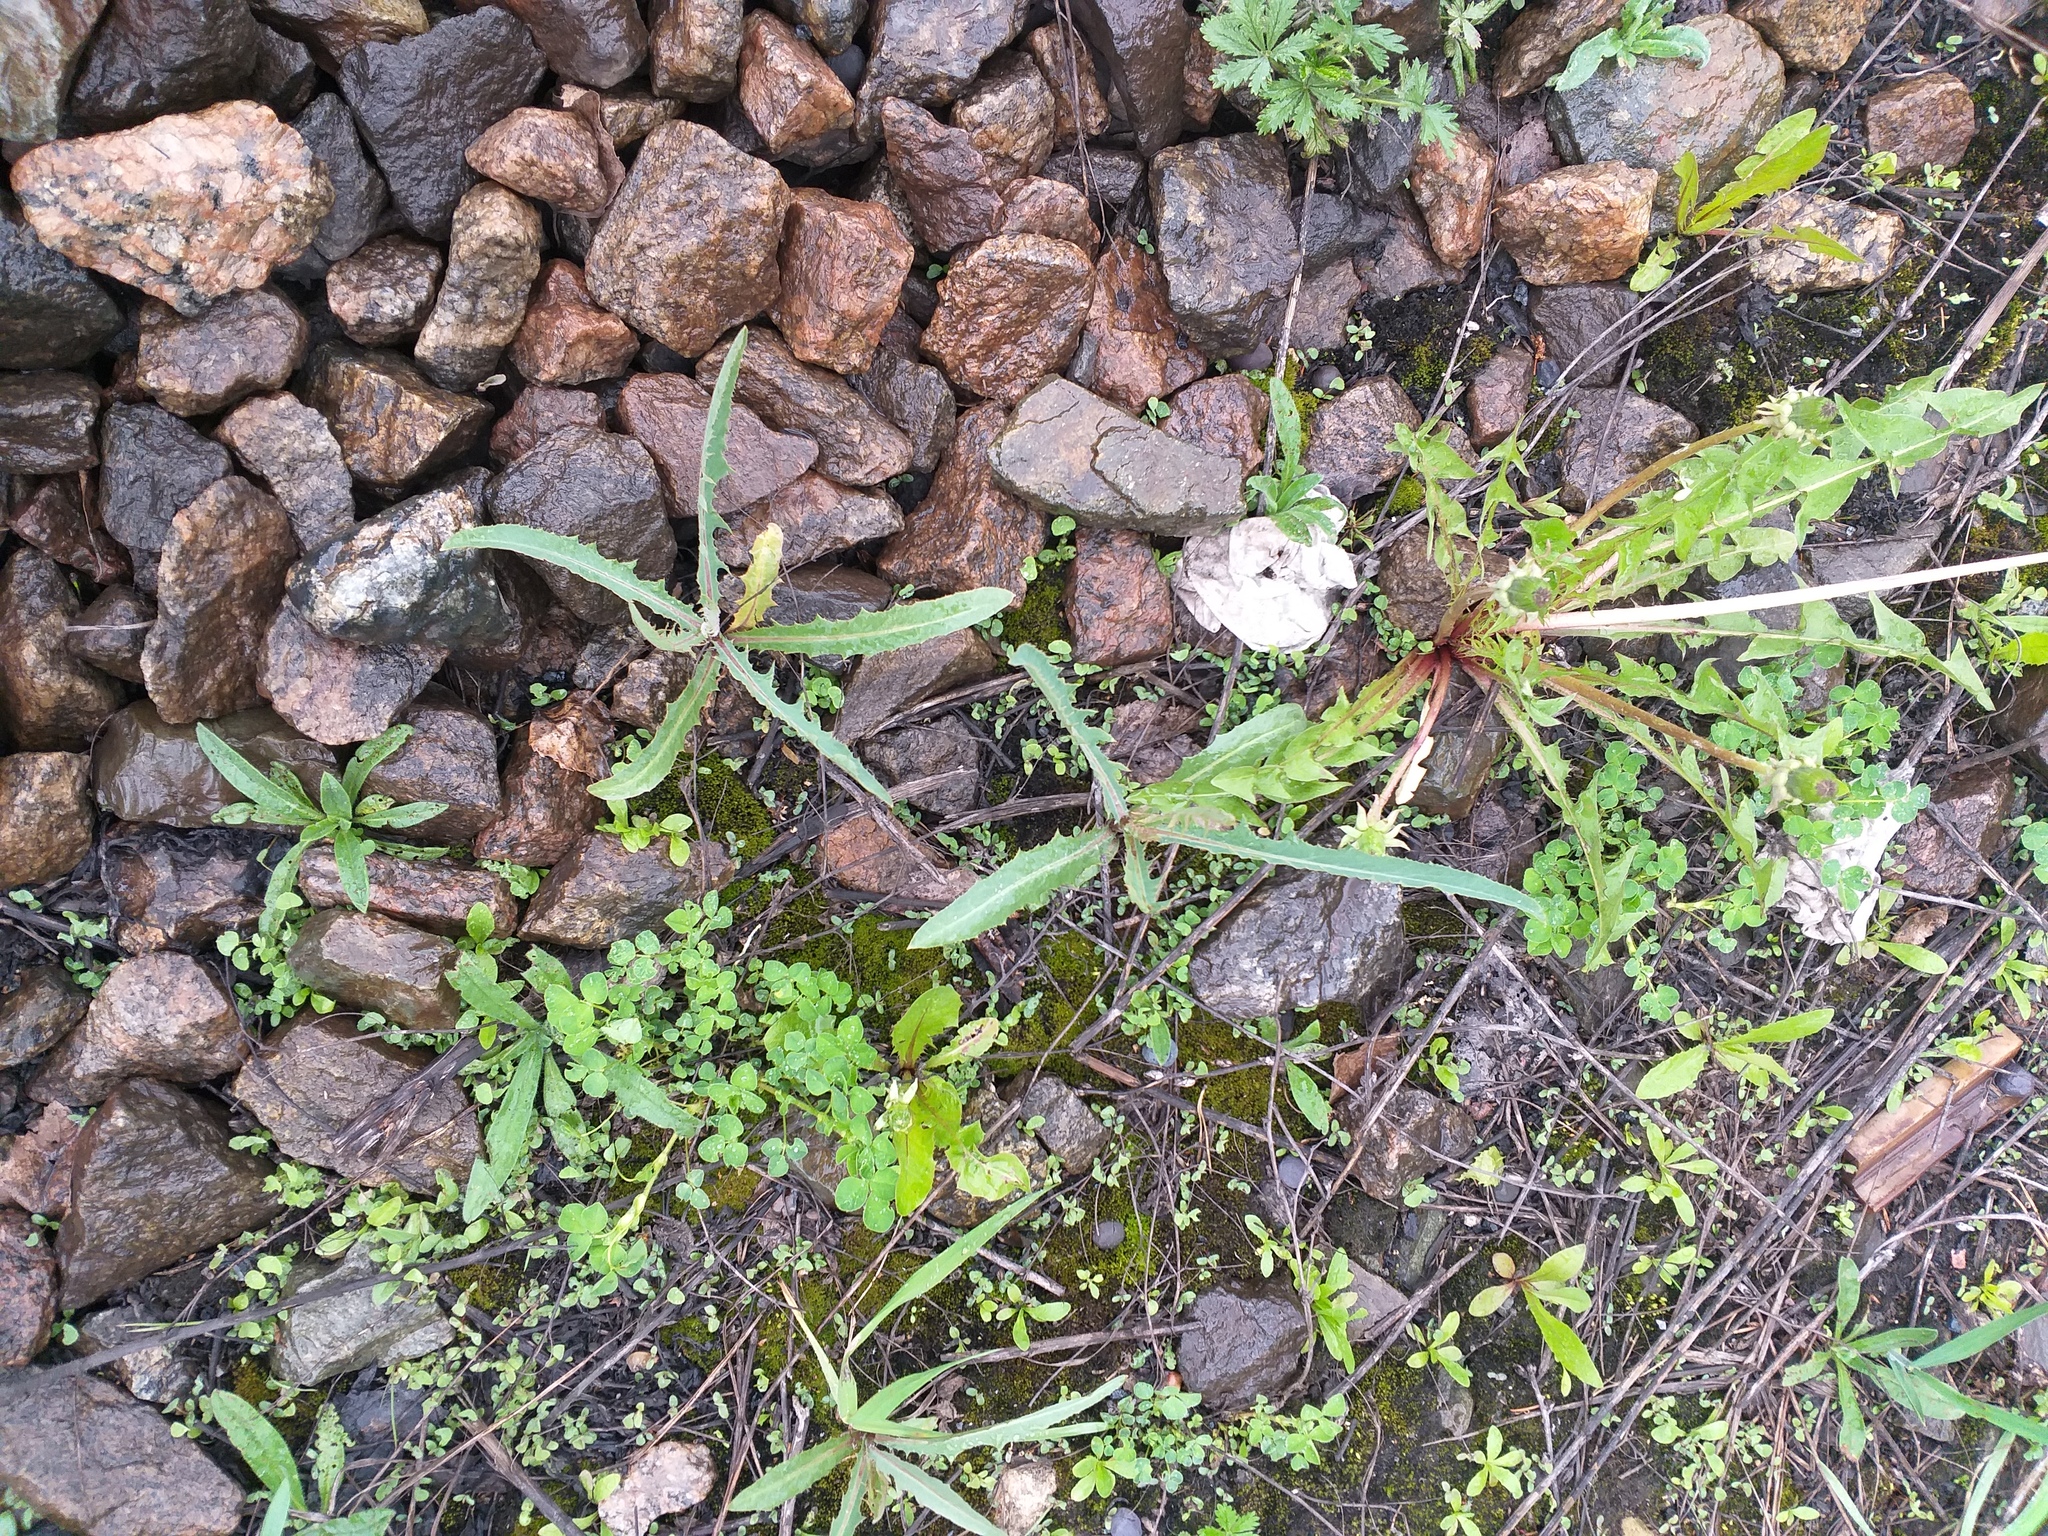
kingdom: Plantae
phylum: Tracheophyta
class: Magnoliopsida
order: Asterales
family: Asteraceae
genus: Lactuca
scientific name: Lactuca tatarica
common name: Blue lettuce
